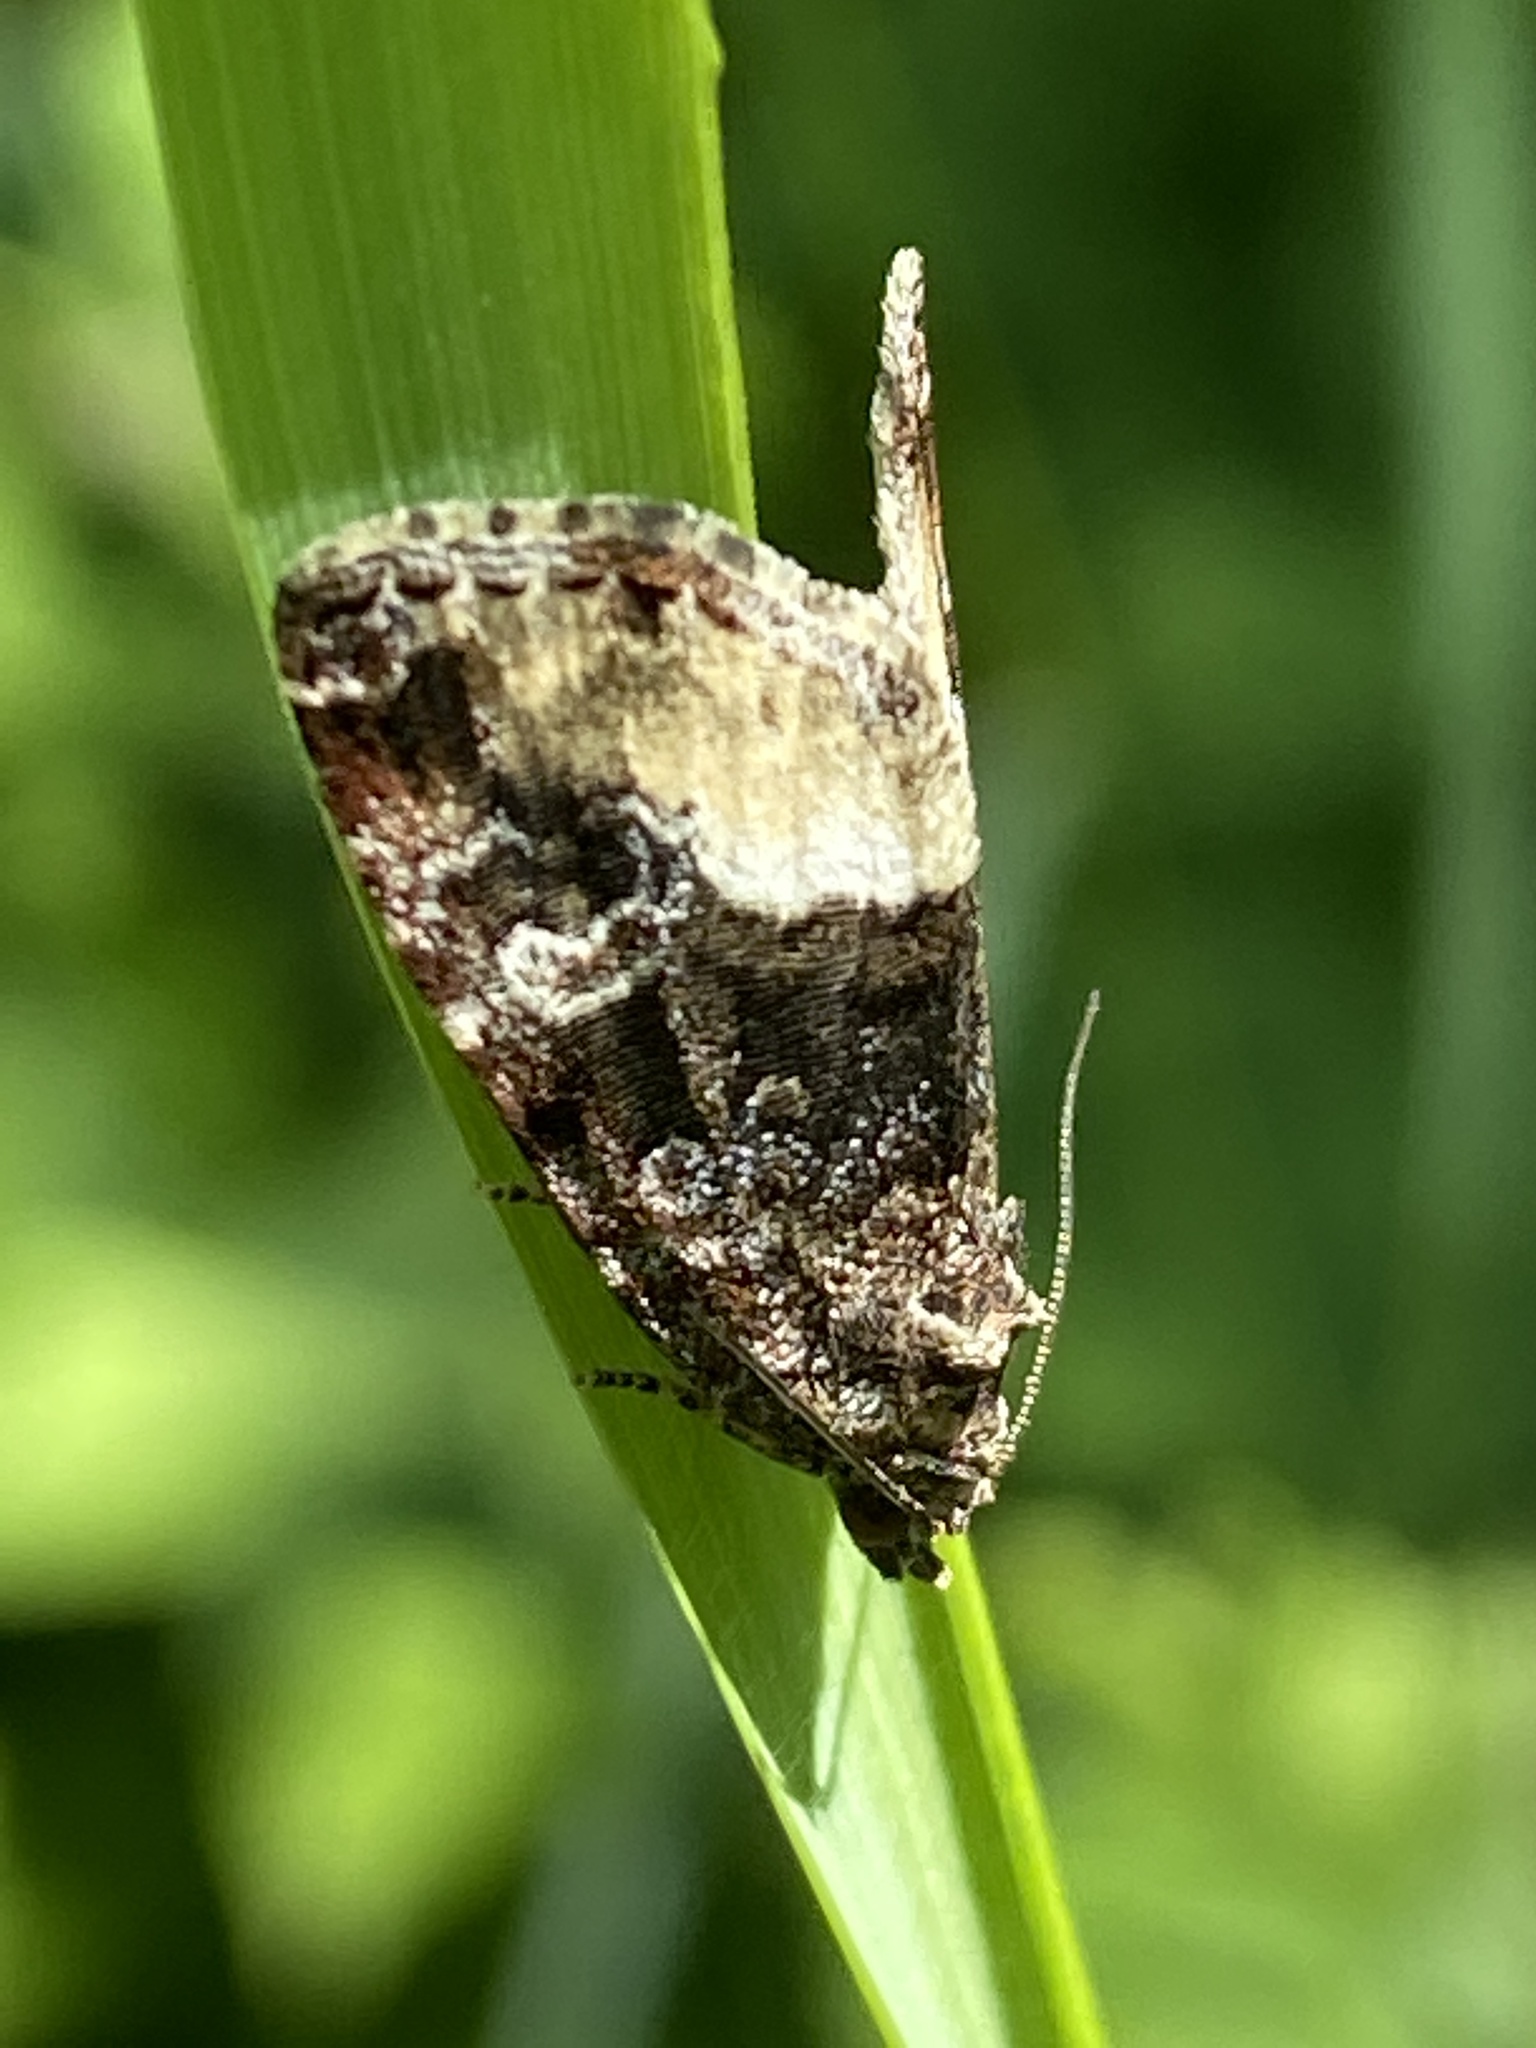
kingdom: Animalia
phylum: Arthropoda
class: Insecta
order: Lepidoptera
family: Noctuidae
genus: Deltote
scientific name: Deltote pygarga
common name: Marbled white spot
